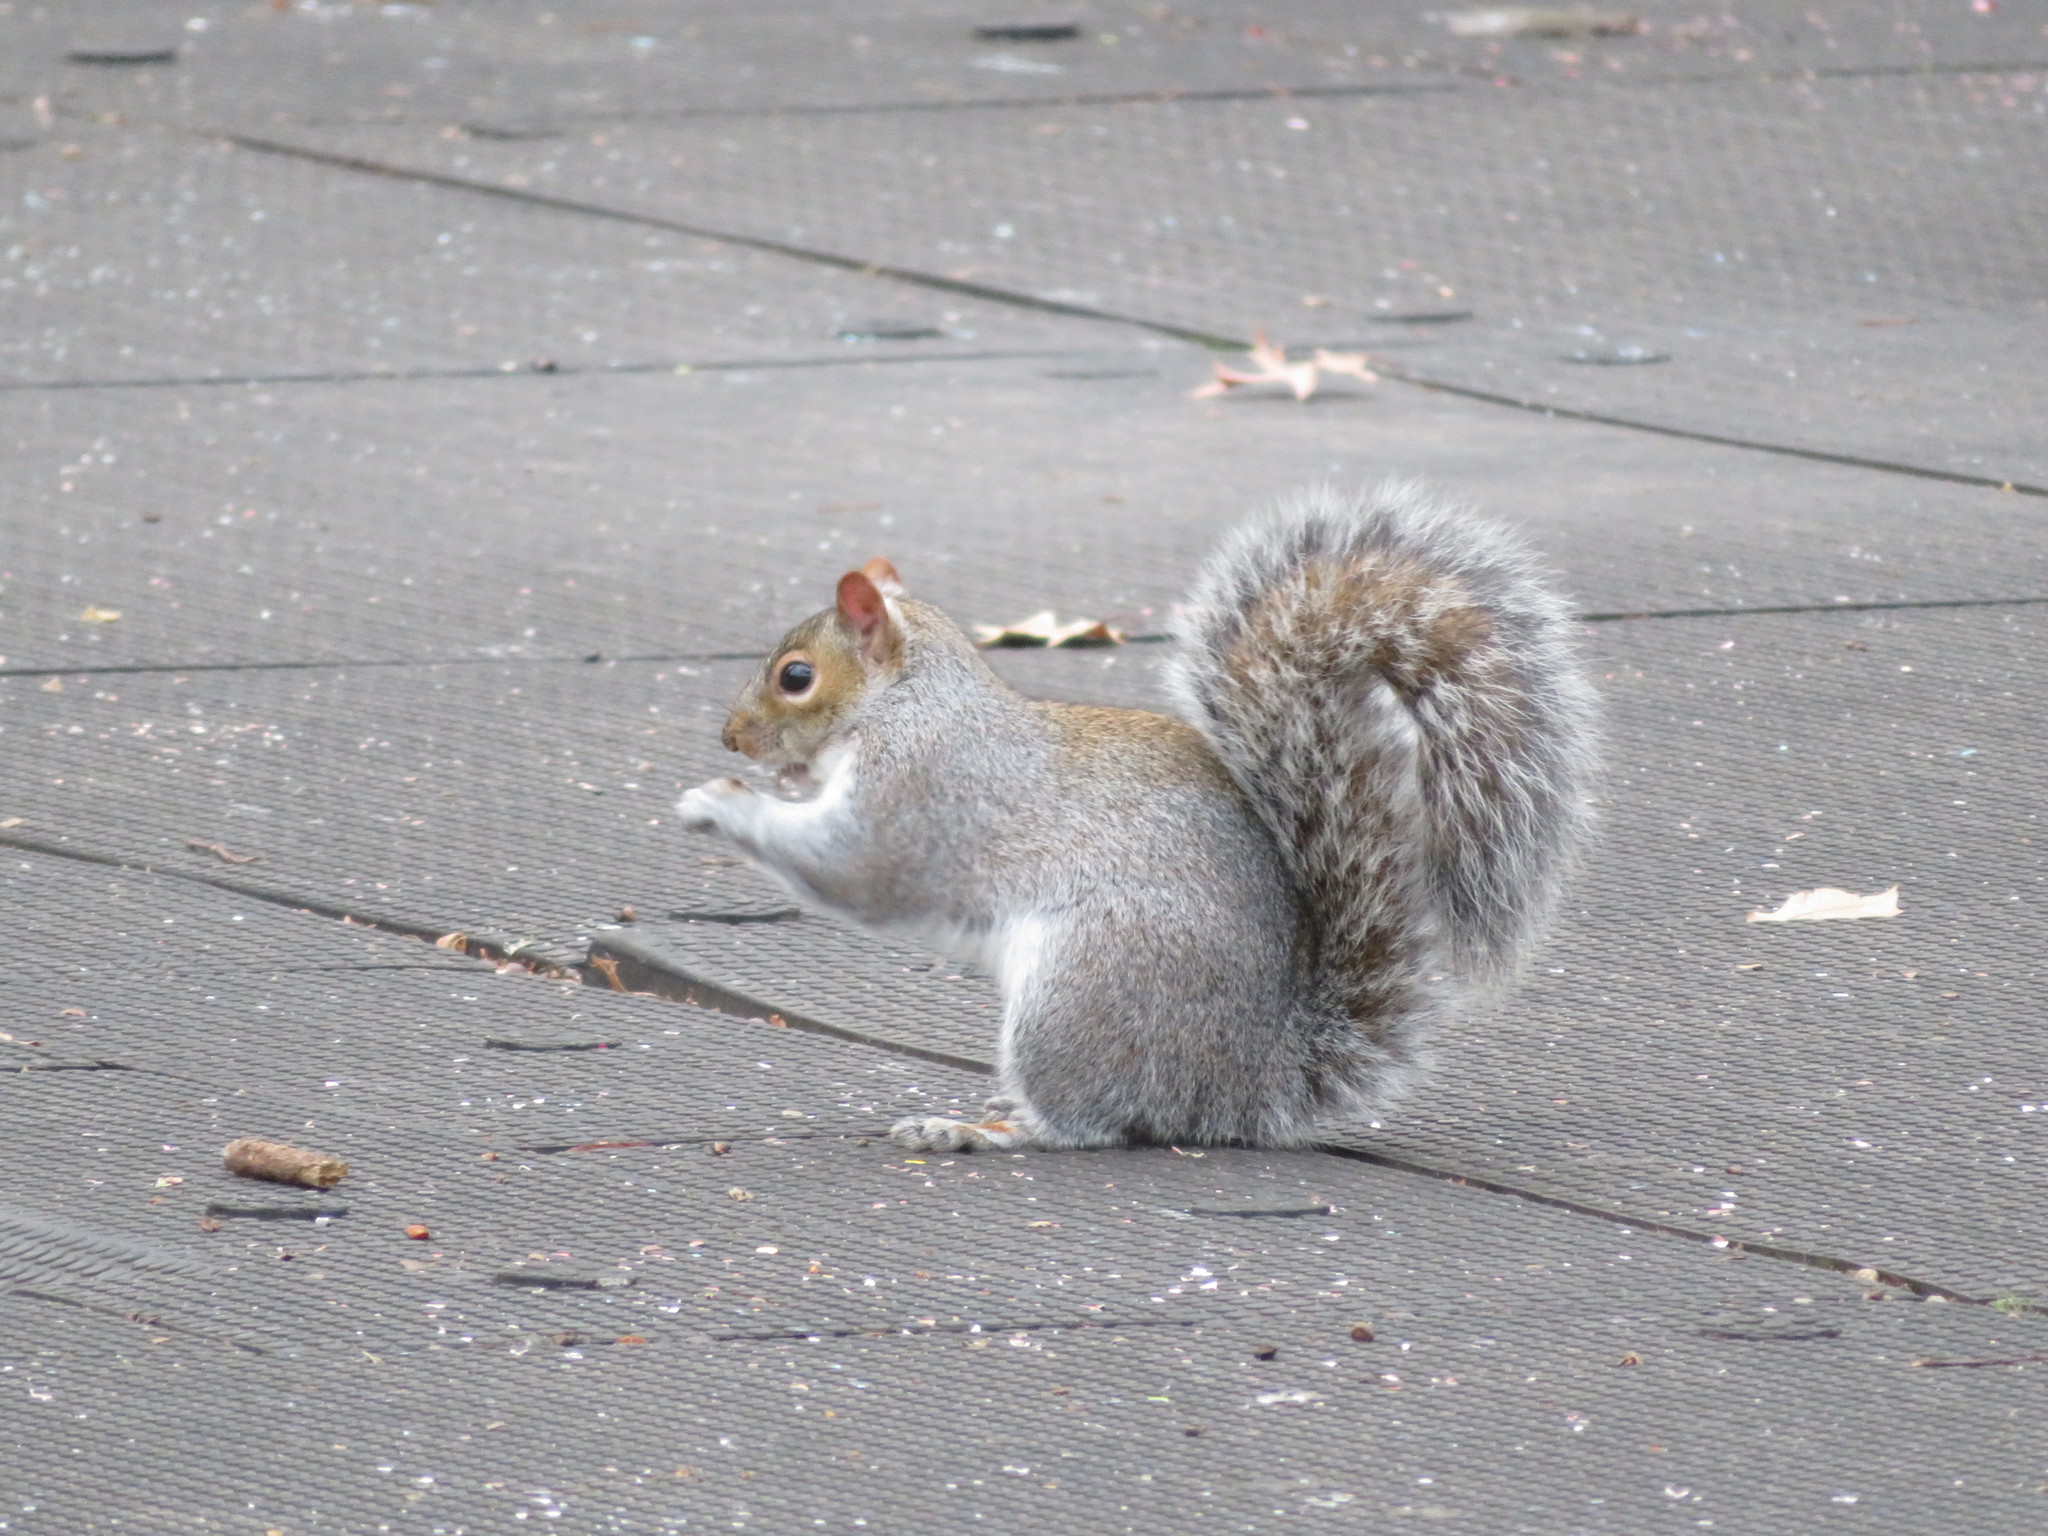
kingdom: Animalia
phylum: Chordata
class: Mammalia
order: Rodentia
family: Sciuridae
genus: Sciurus
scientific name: Sciurus carolinensis
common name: Eastern gray squirrel
